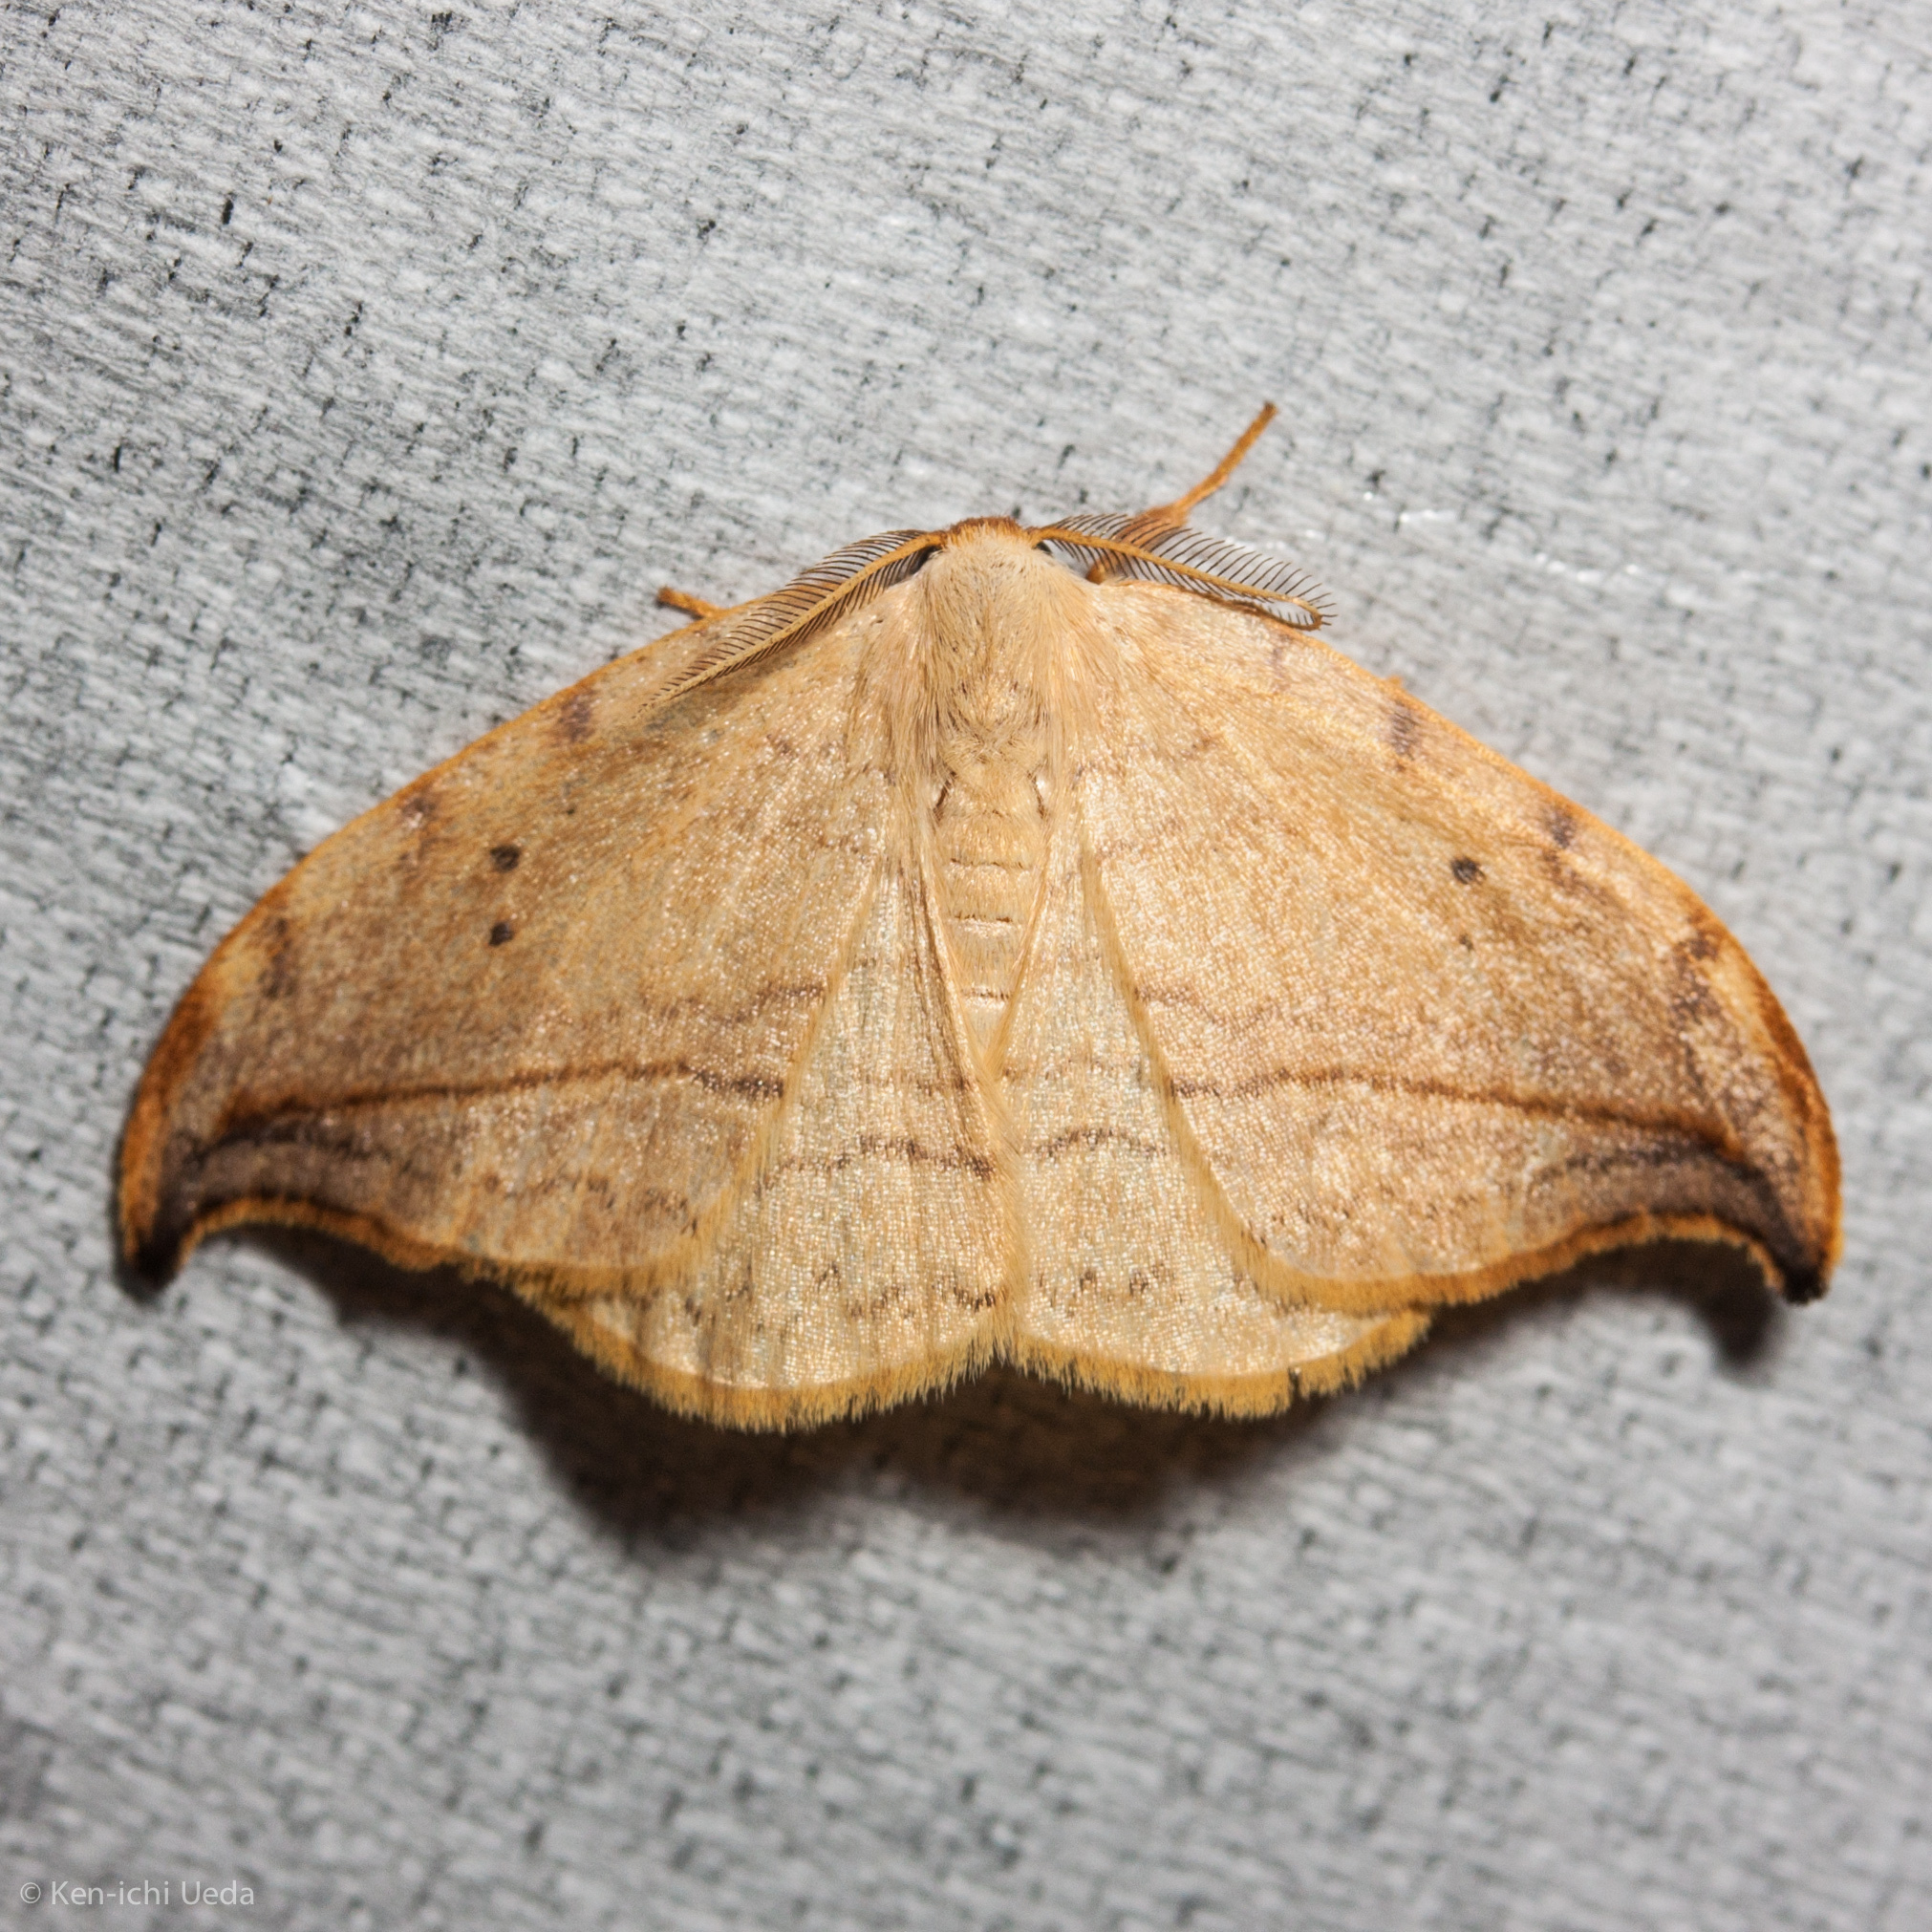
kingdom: Animalia
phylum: Arthropoda
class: Insecta
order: Lepidoptera
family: Drepanidae
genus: Drepana
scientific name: Drepana arcuata
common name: Arched hooktip moth
